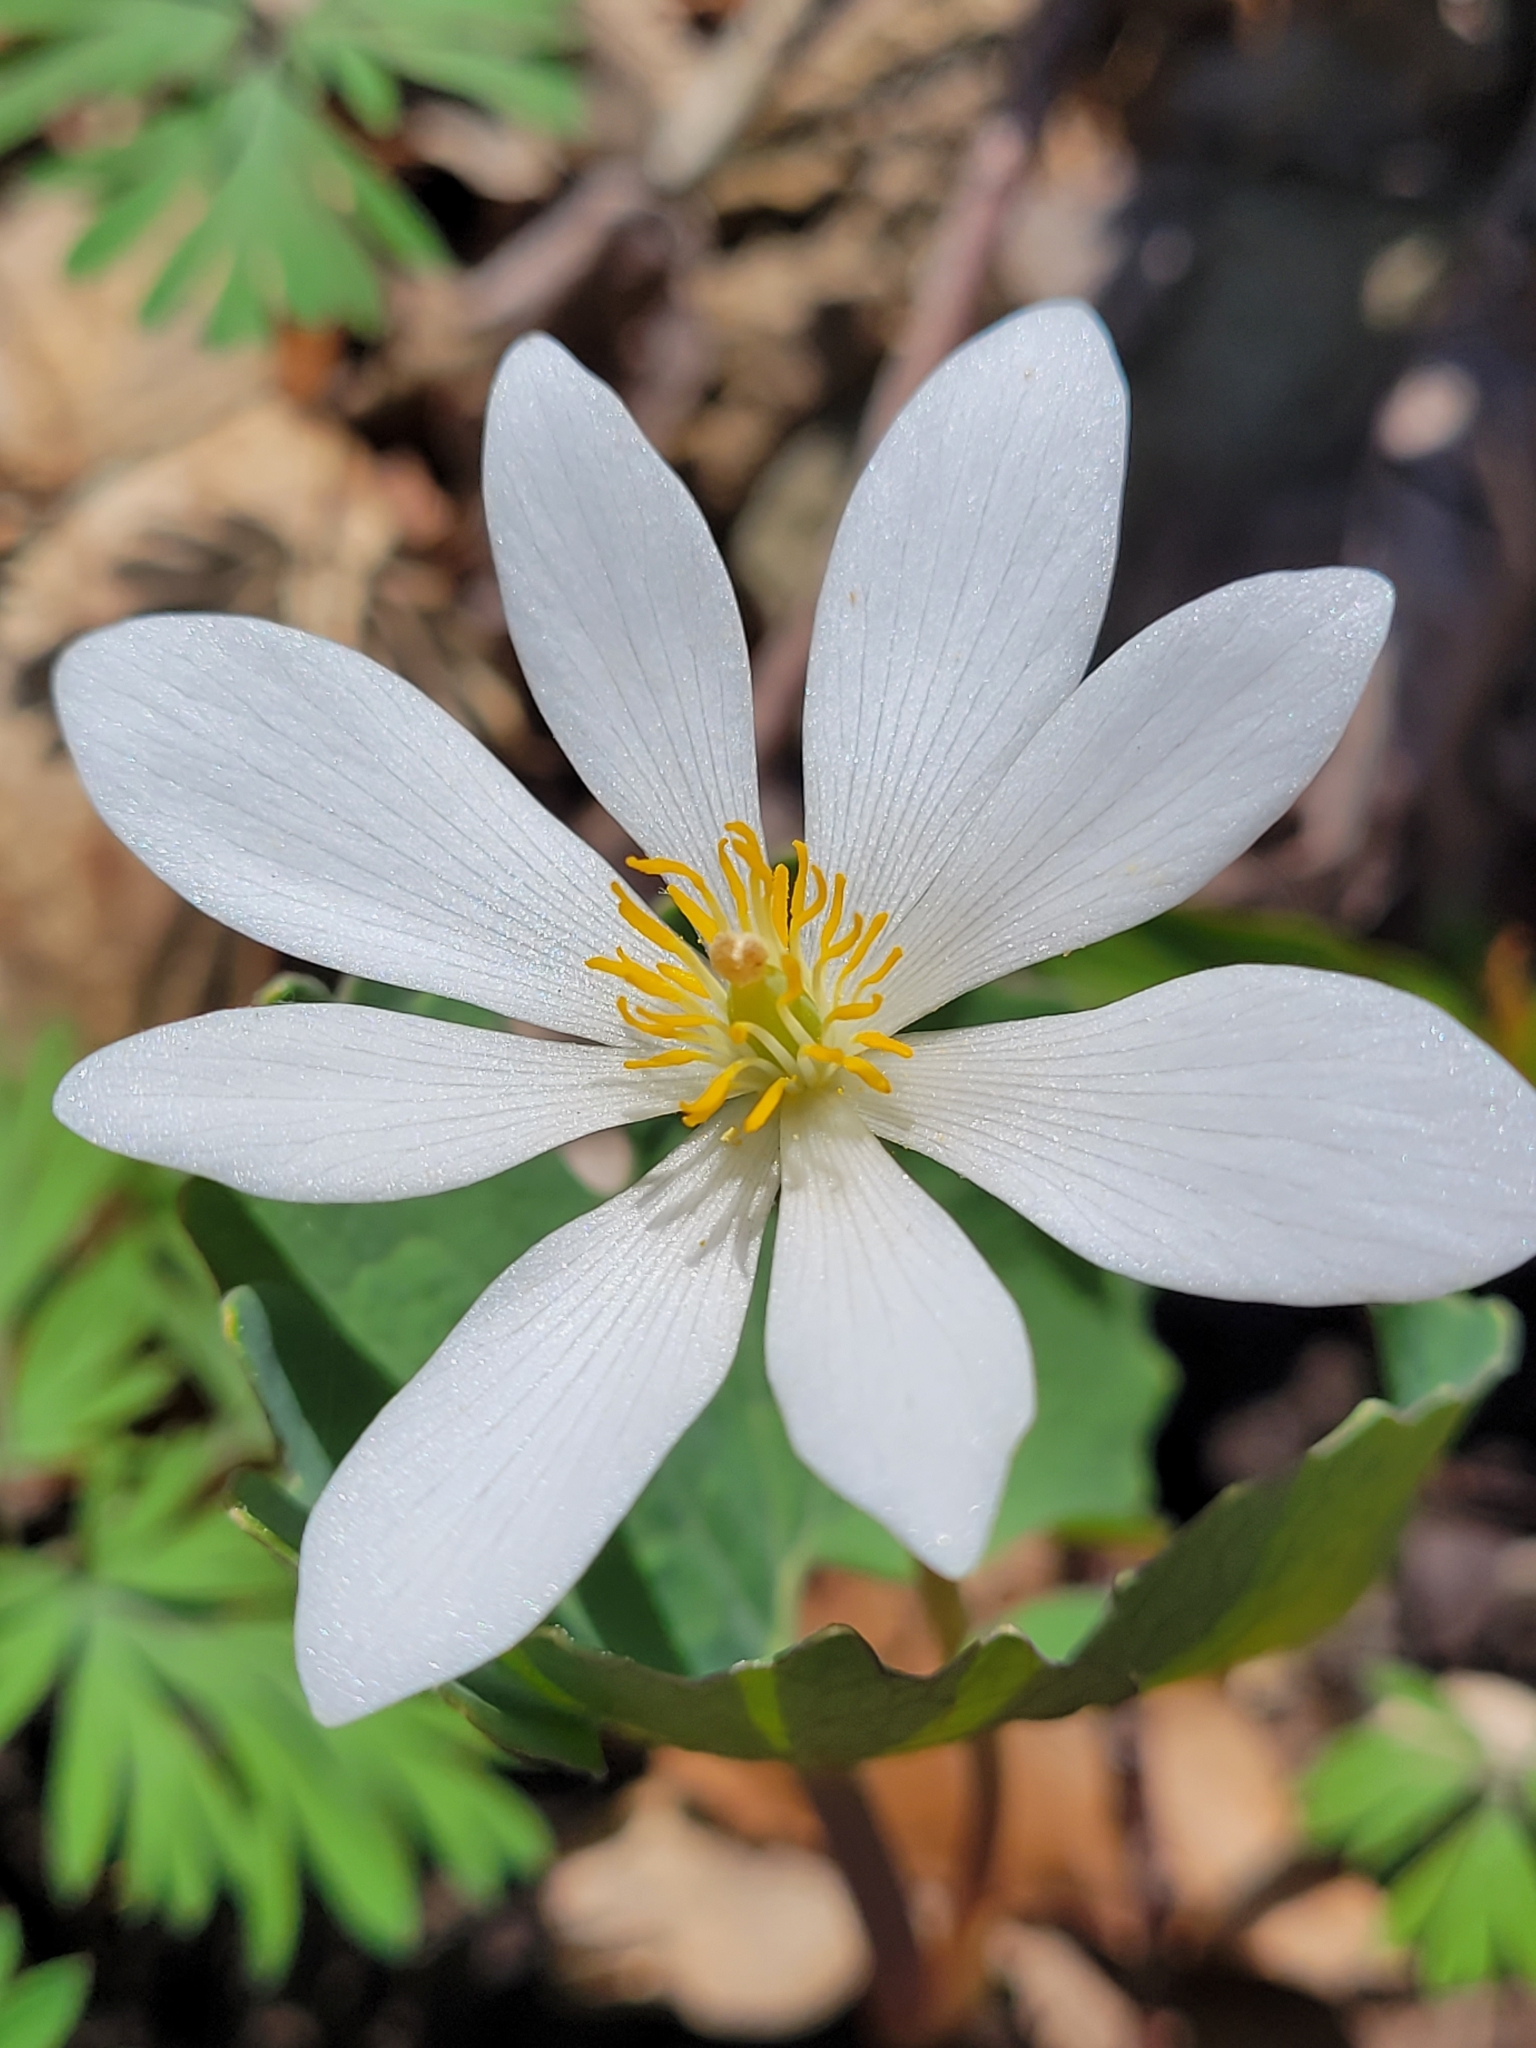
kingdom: Plantae
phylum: Tracheophyta
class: Magnoliopsida
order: Ranunculales
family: Papaveraceae
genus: Sanguinaria
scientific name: Sanguinaria canadensis
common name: Bloodroot
